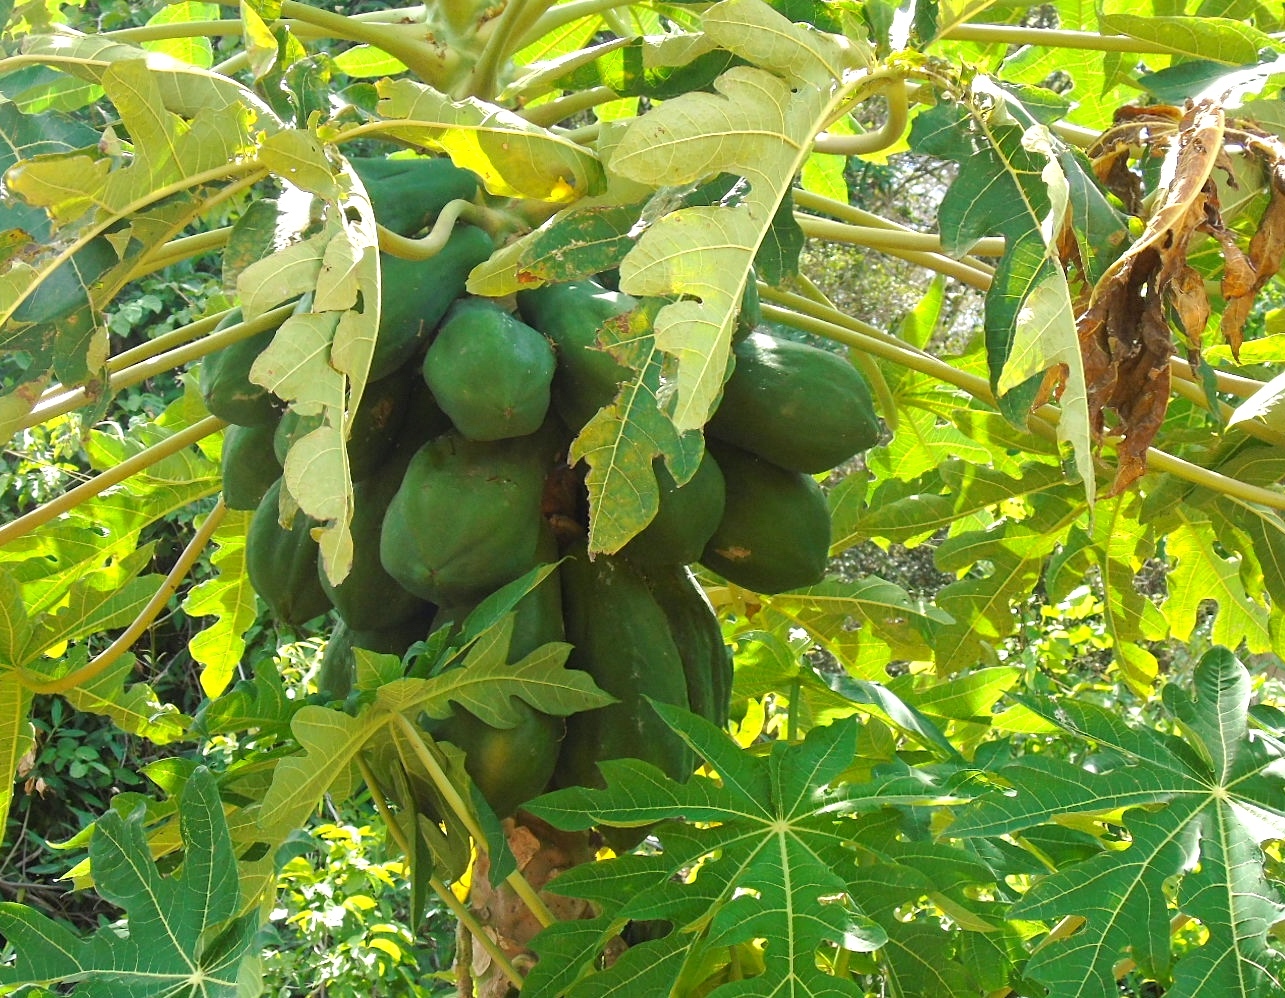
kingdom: Plantae
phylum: Tracheophyta
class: Magnoliopsida
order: Brassicales
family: Caricaceae
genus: Carica
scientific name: Carica papaya
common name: Papaya
